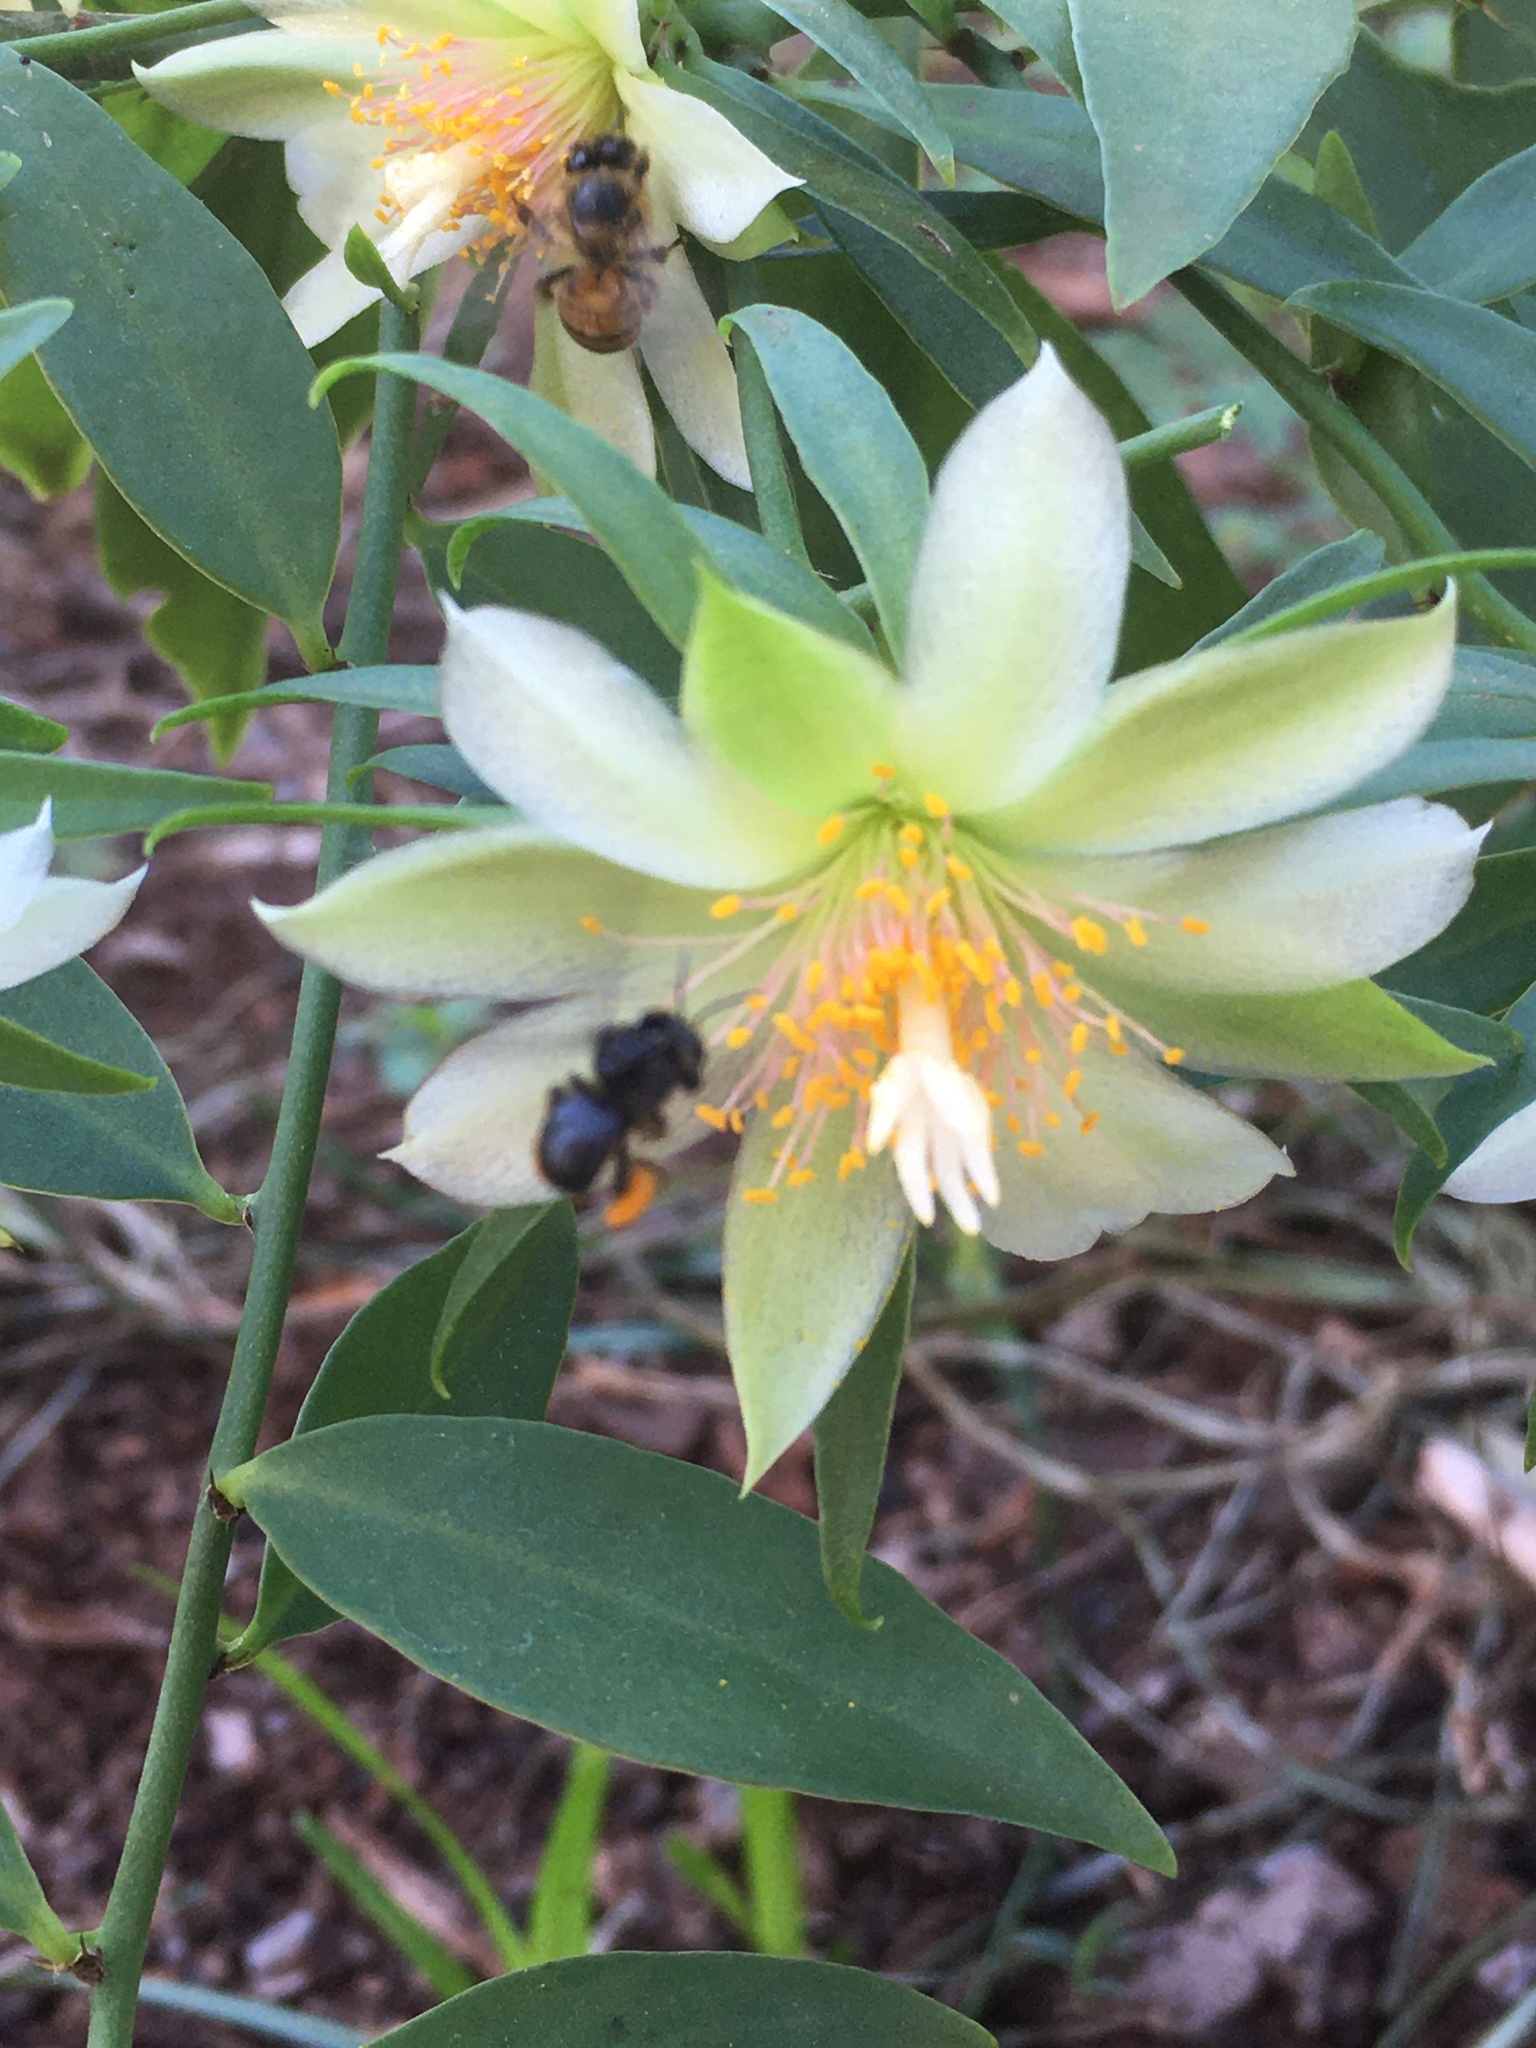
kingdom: Animalia
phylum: Arthropoda
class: Insecta
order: Hymenoptera
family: Apidae
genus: Trigona
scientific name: Trigona spinipes
